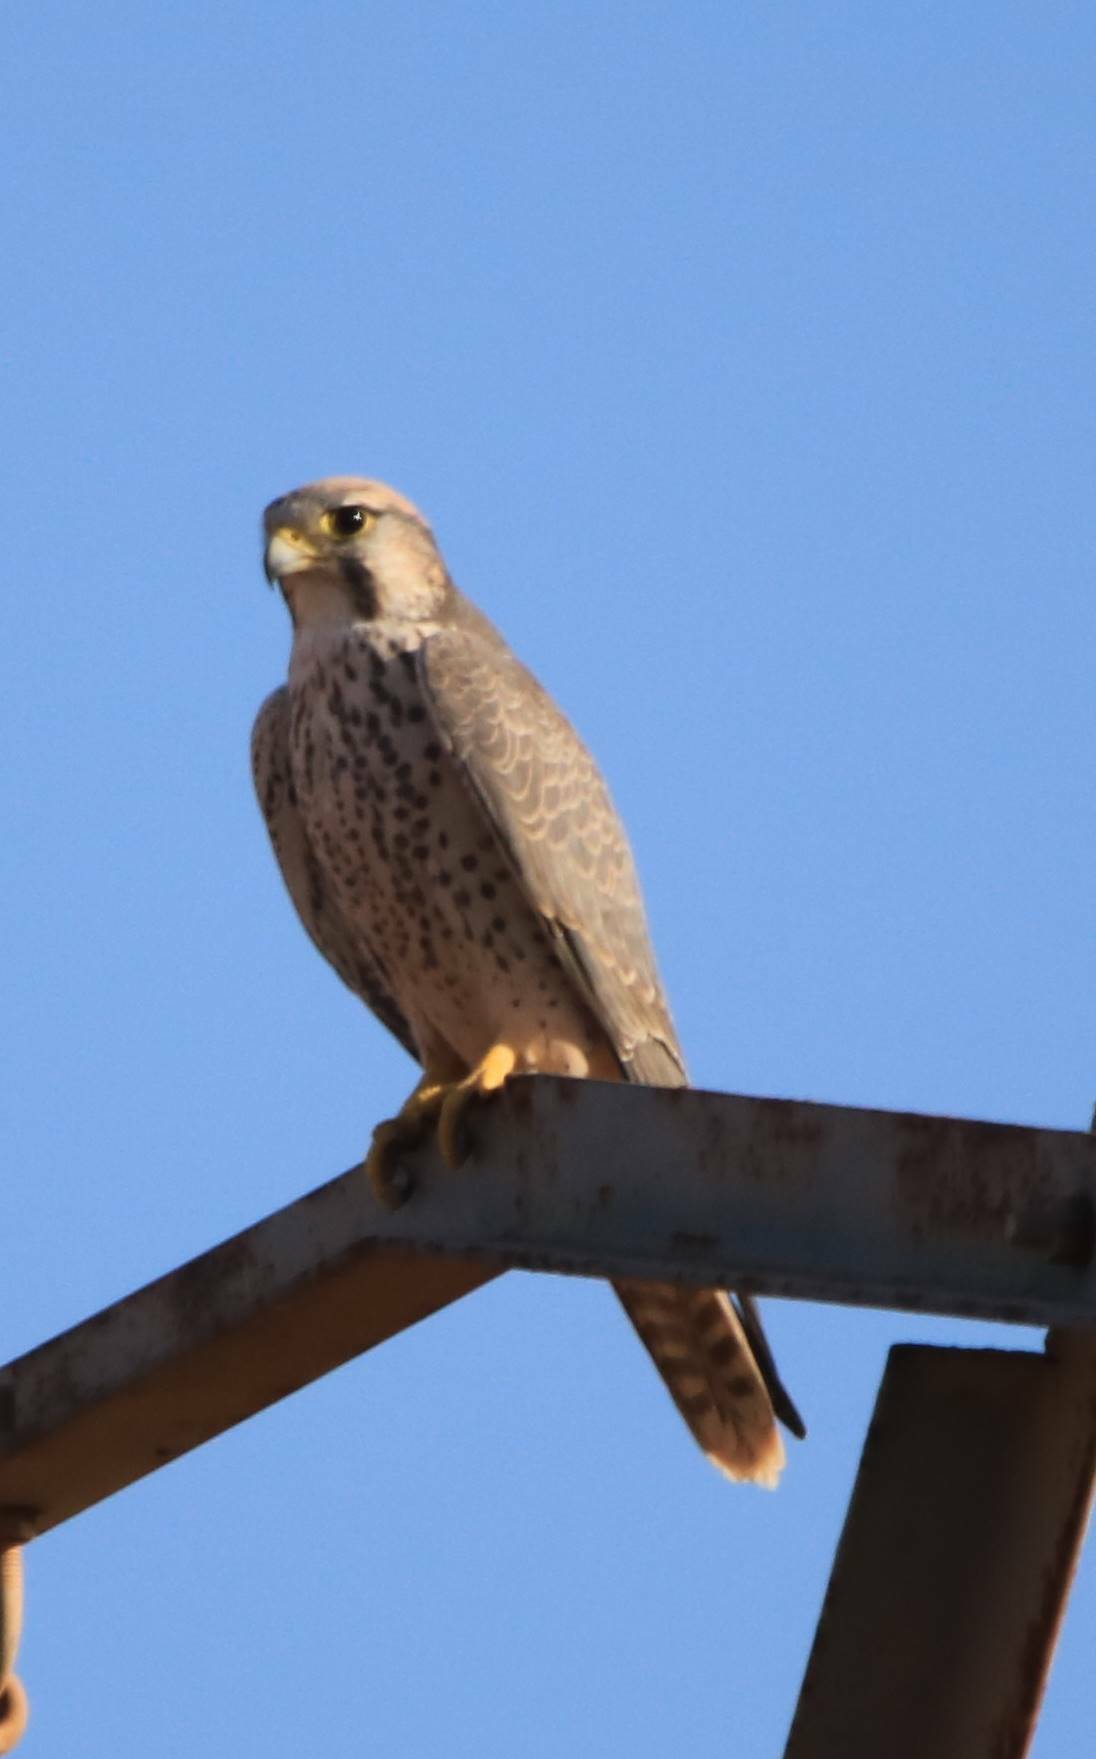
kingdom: Animalia
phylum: Chordata
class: Aves
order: Falconiformes
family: Falconidae
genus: Falco
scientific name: Falco biarmicus
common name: Lanner falcon
